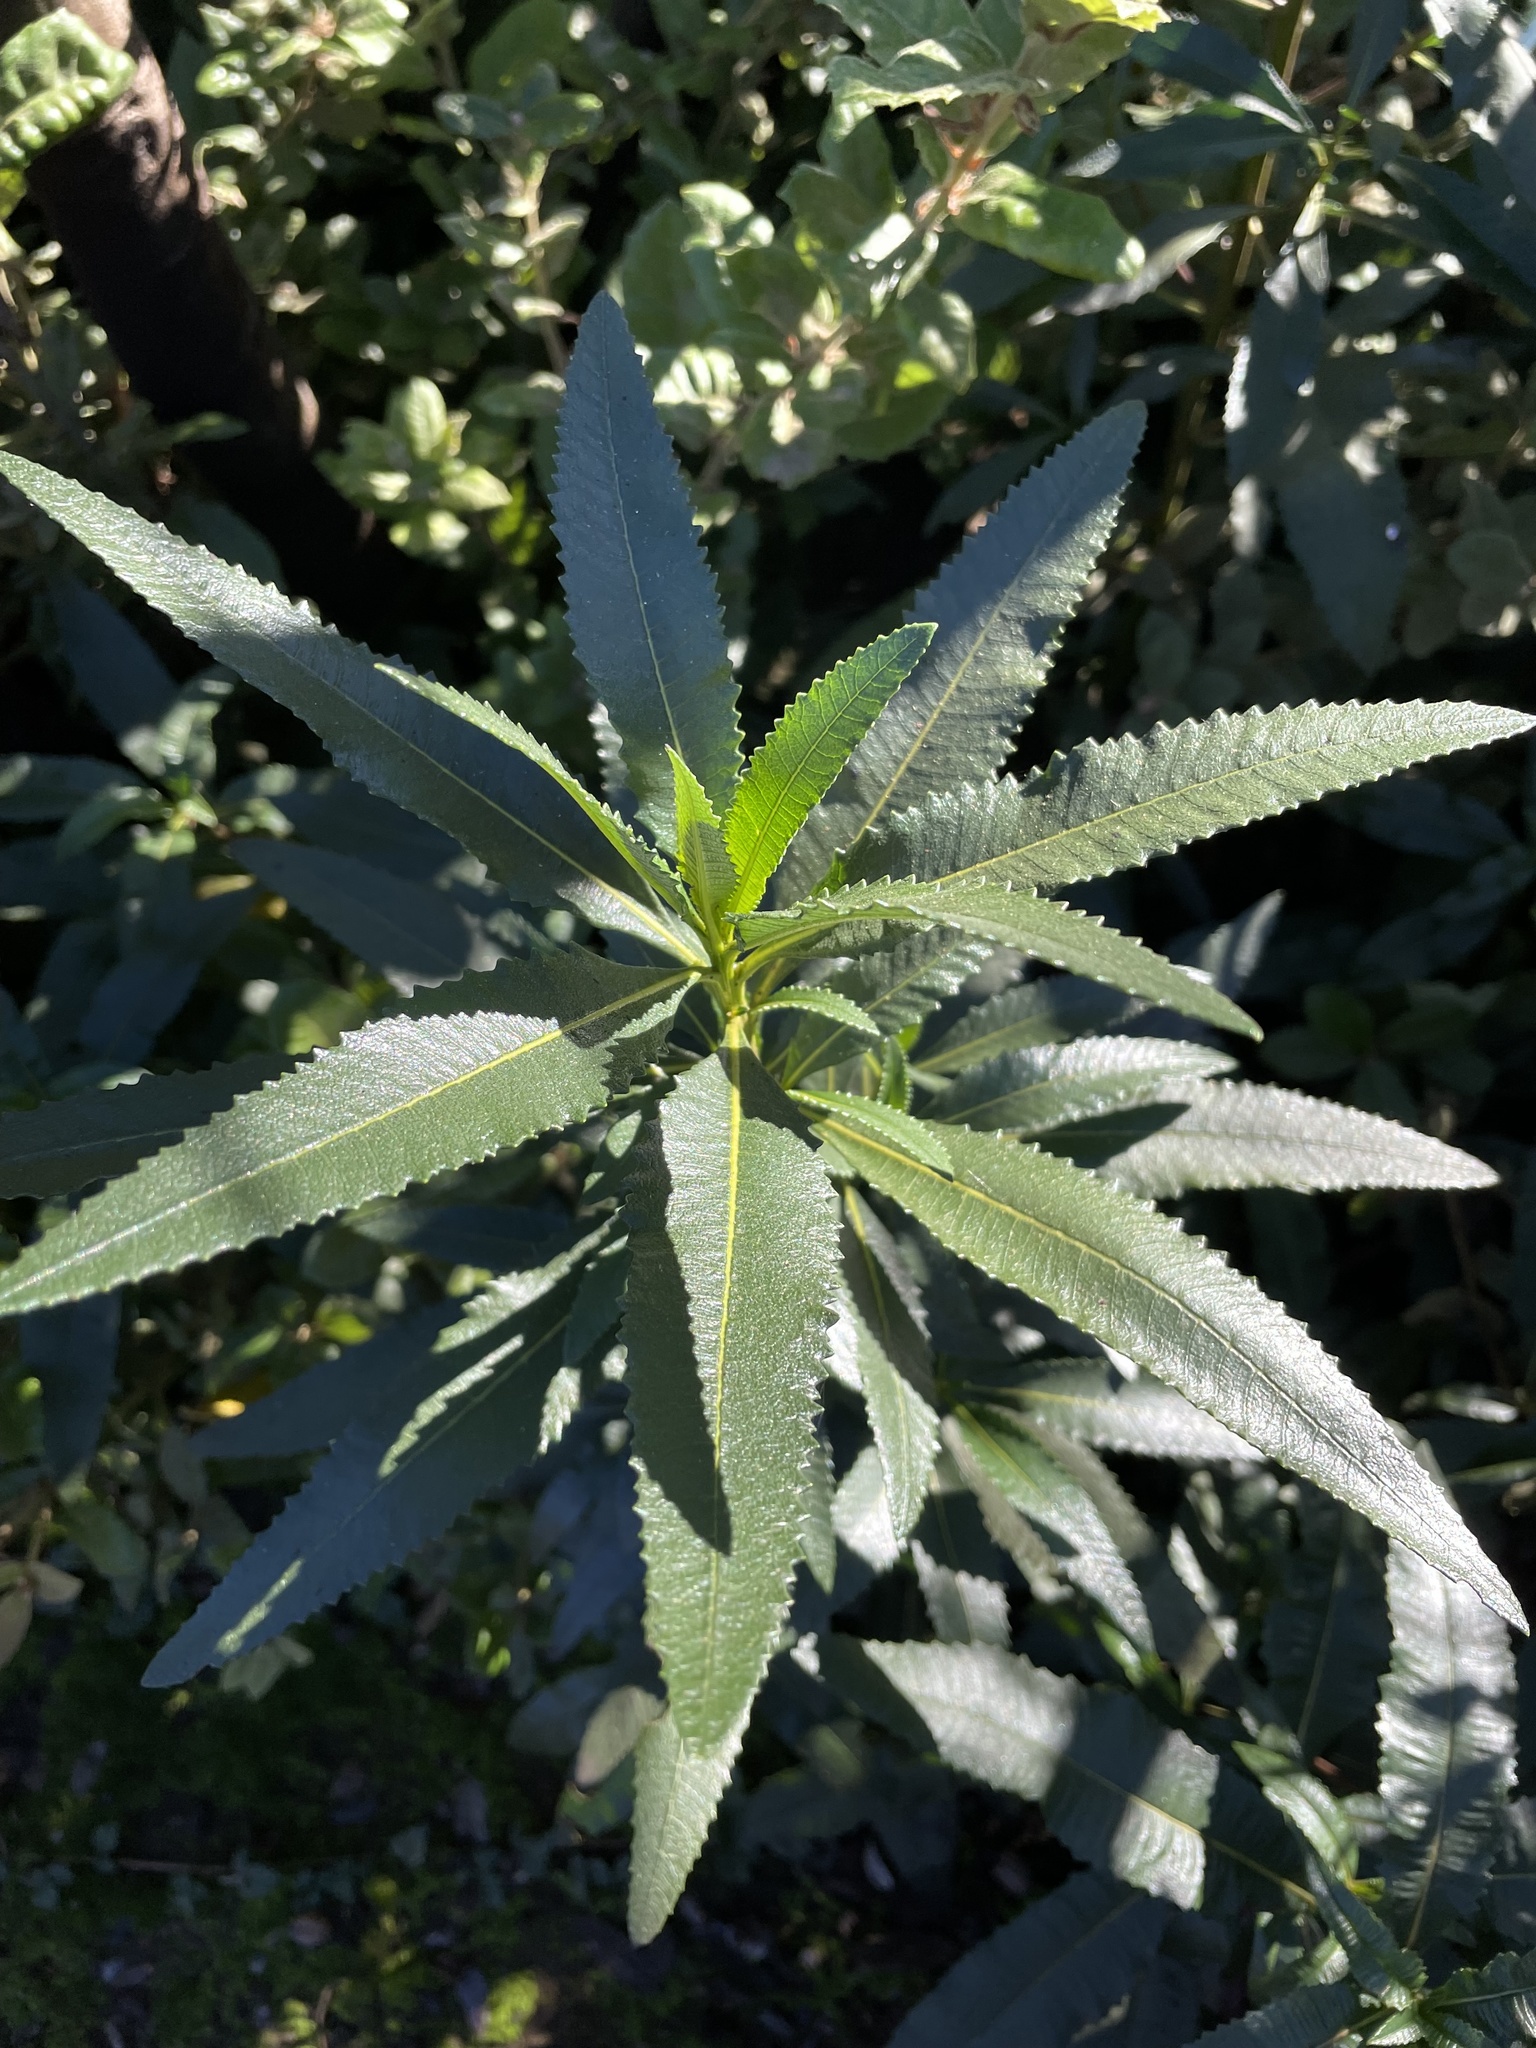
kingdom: Plantae
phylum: Tracheophyta
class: Magnoliopsida
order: Boraginales
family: Namaceae
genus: Eriodictyon
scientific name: Eriodictyon californicum
